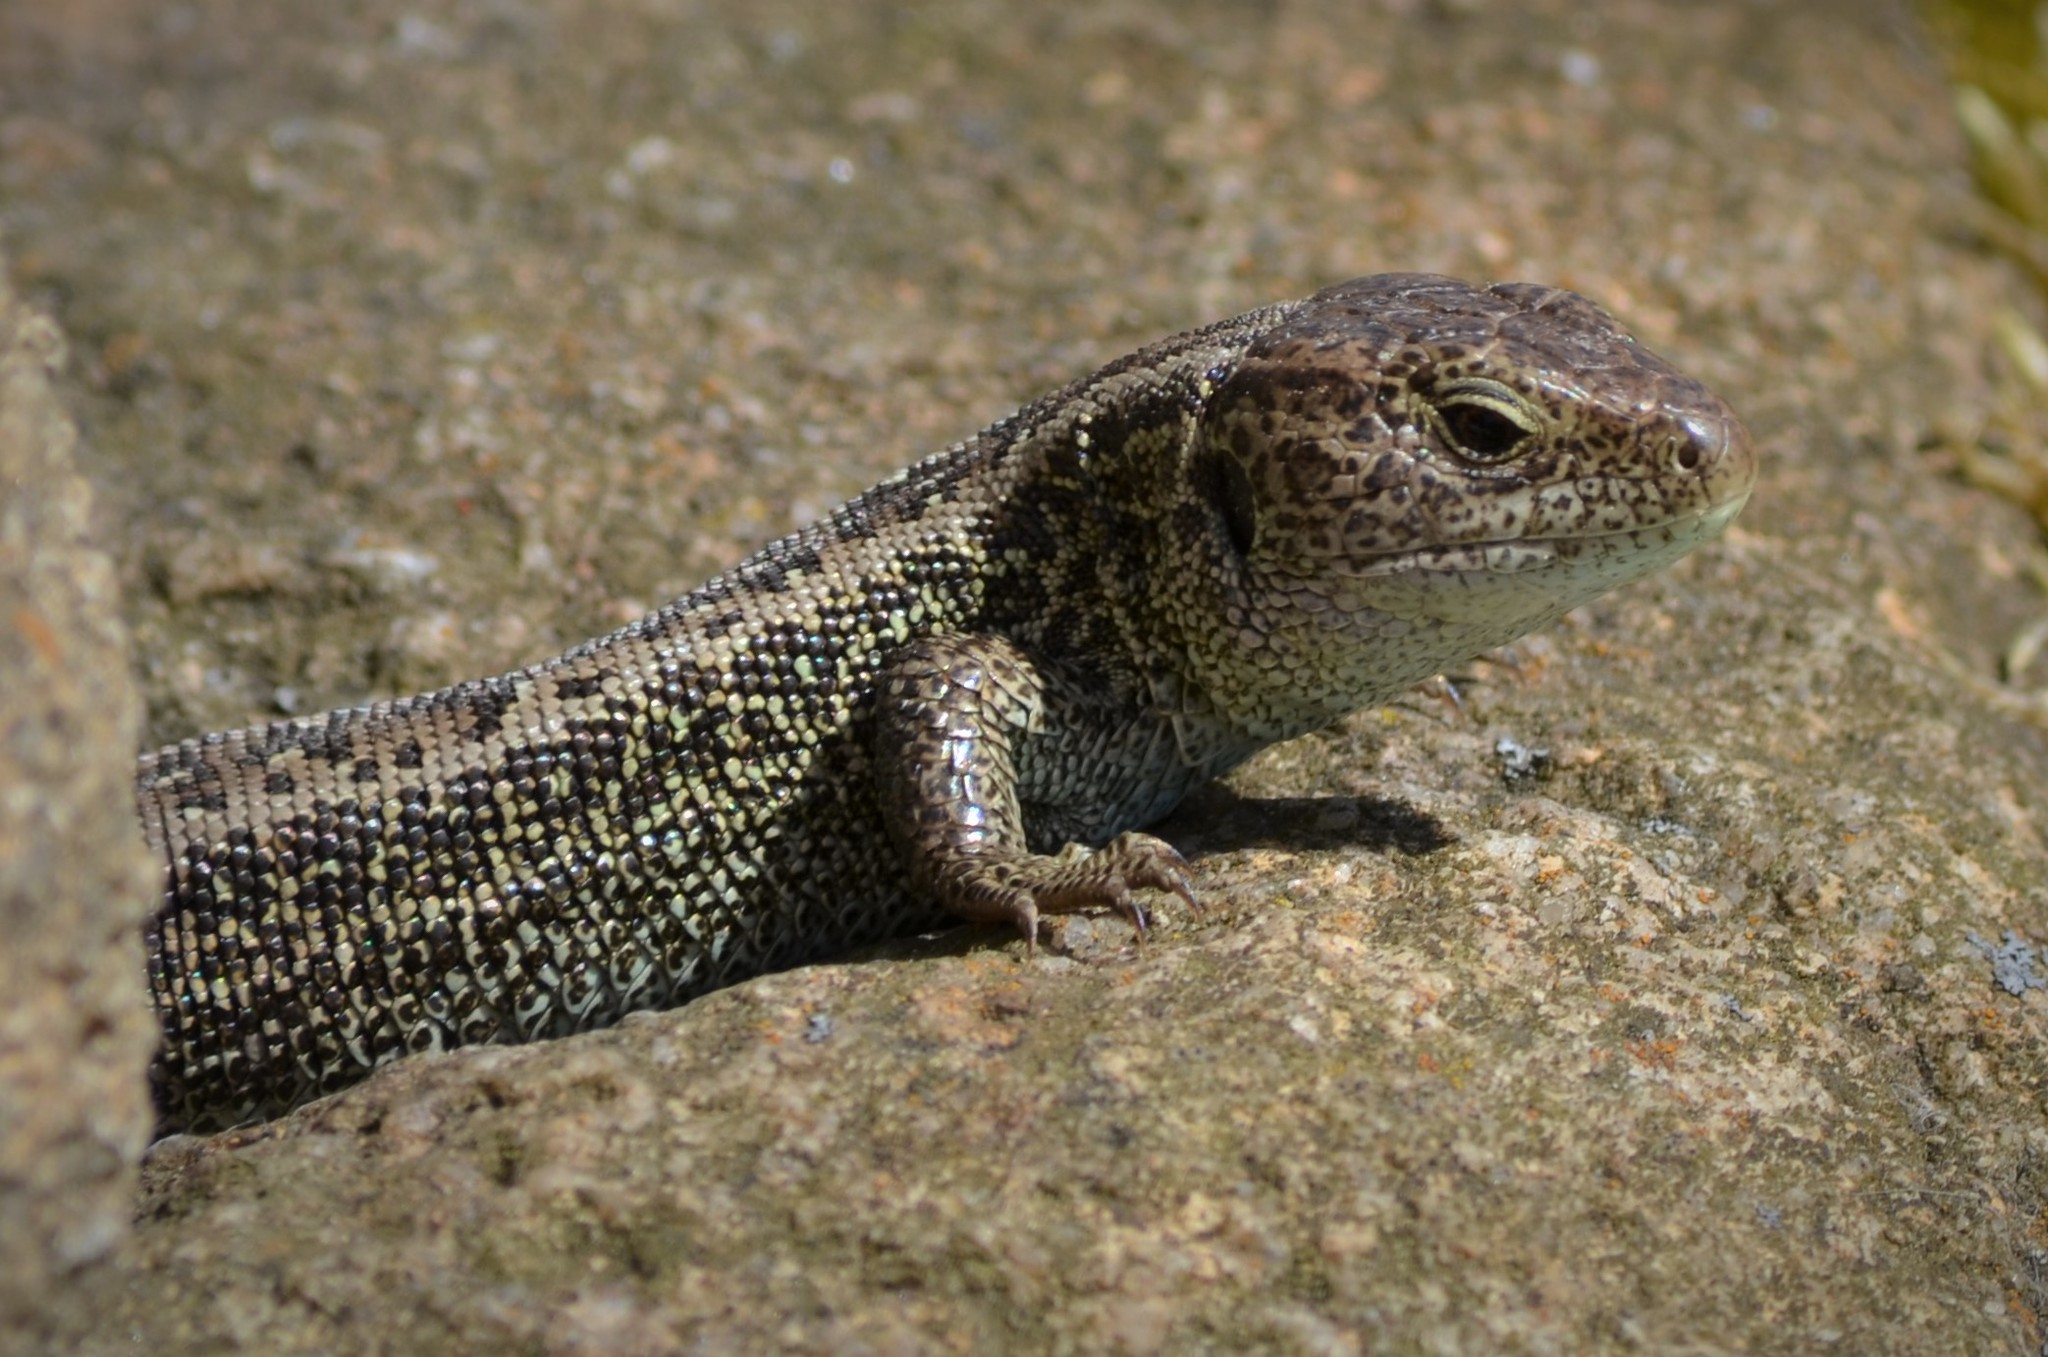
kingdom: Animalia
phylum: Chordata
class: Squamata
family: Lacertidae
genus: Lacerta
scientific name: Lacerta agilis
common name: Sand lizard
